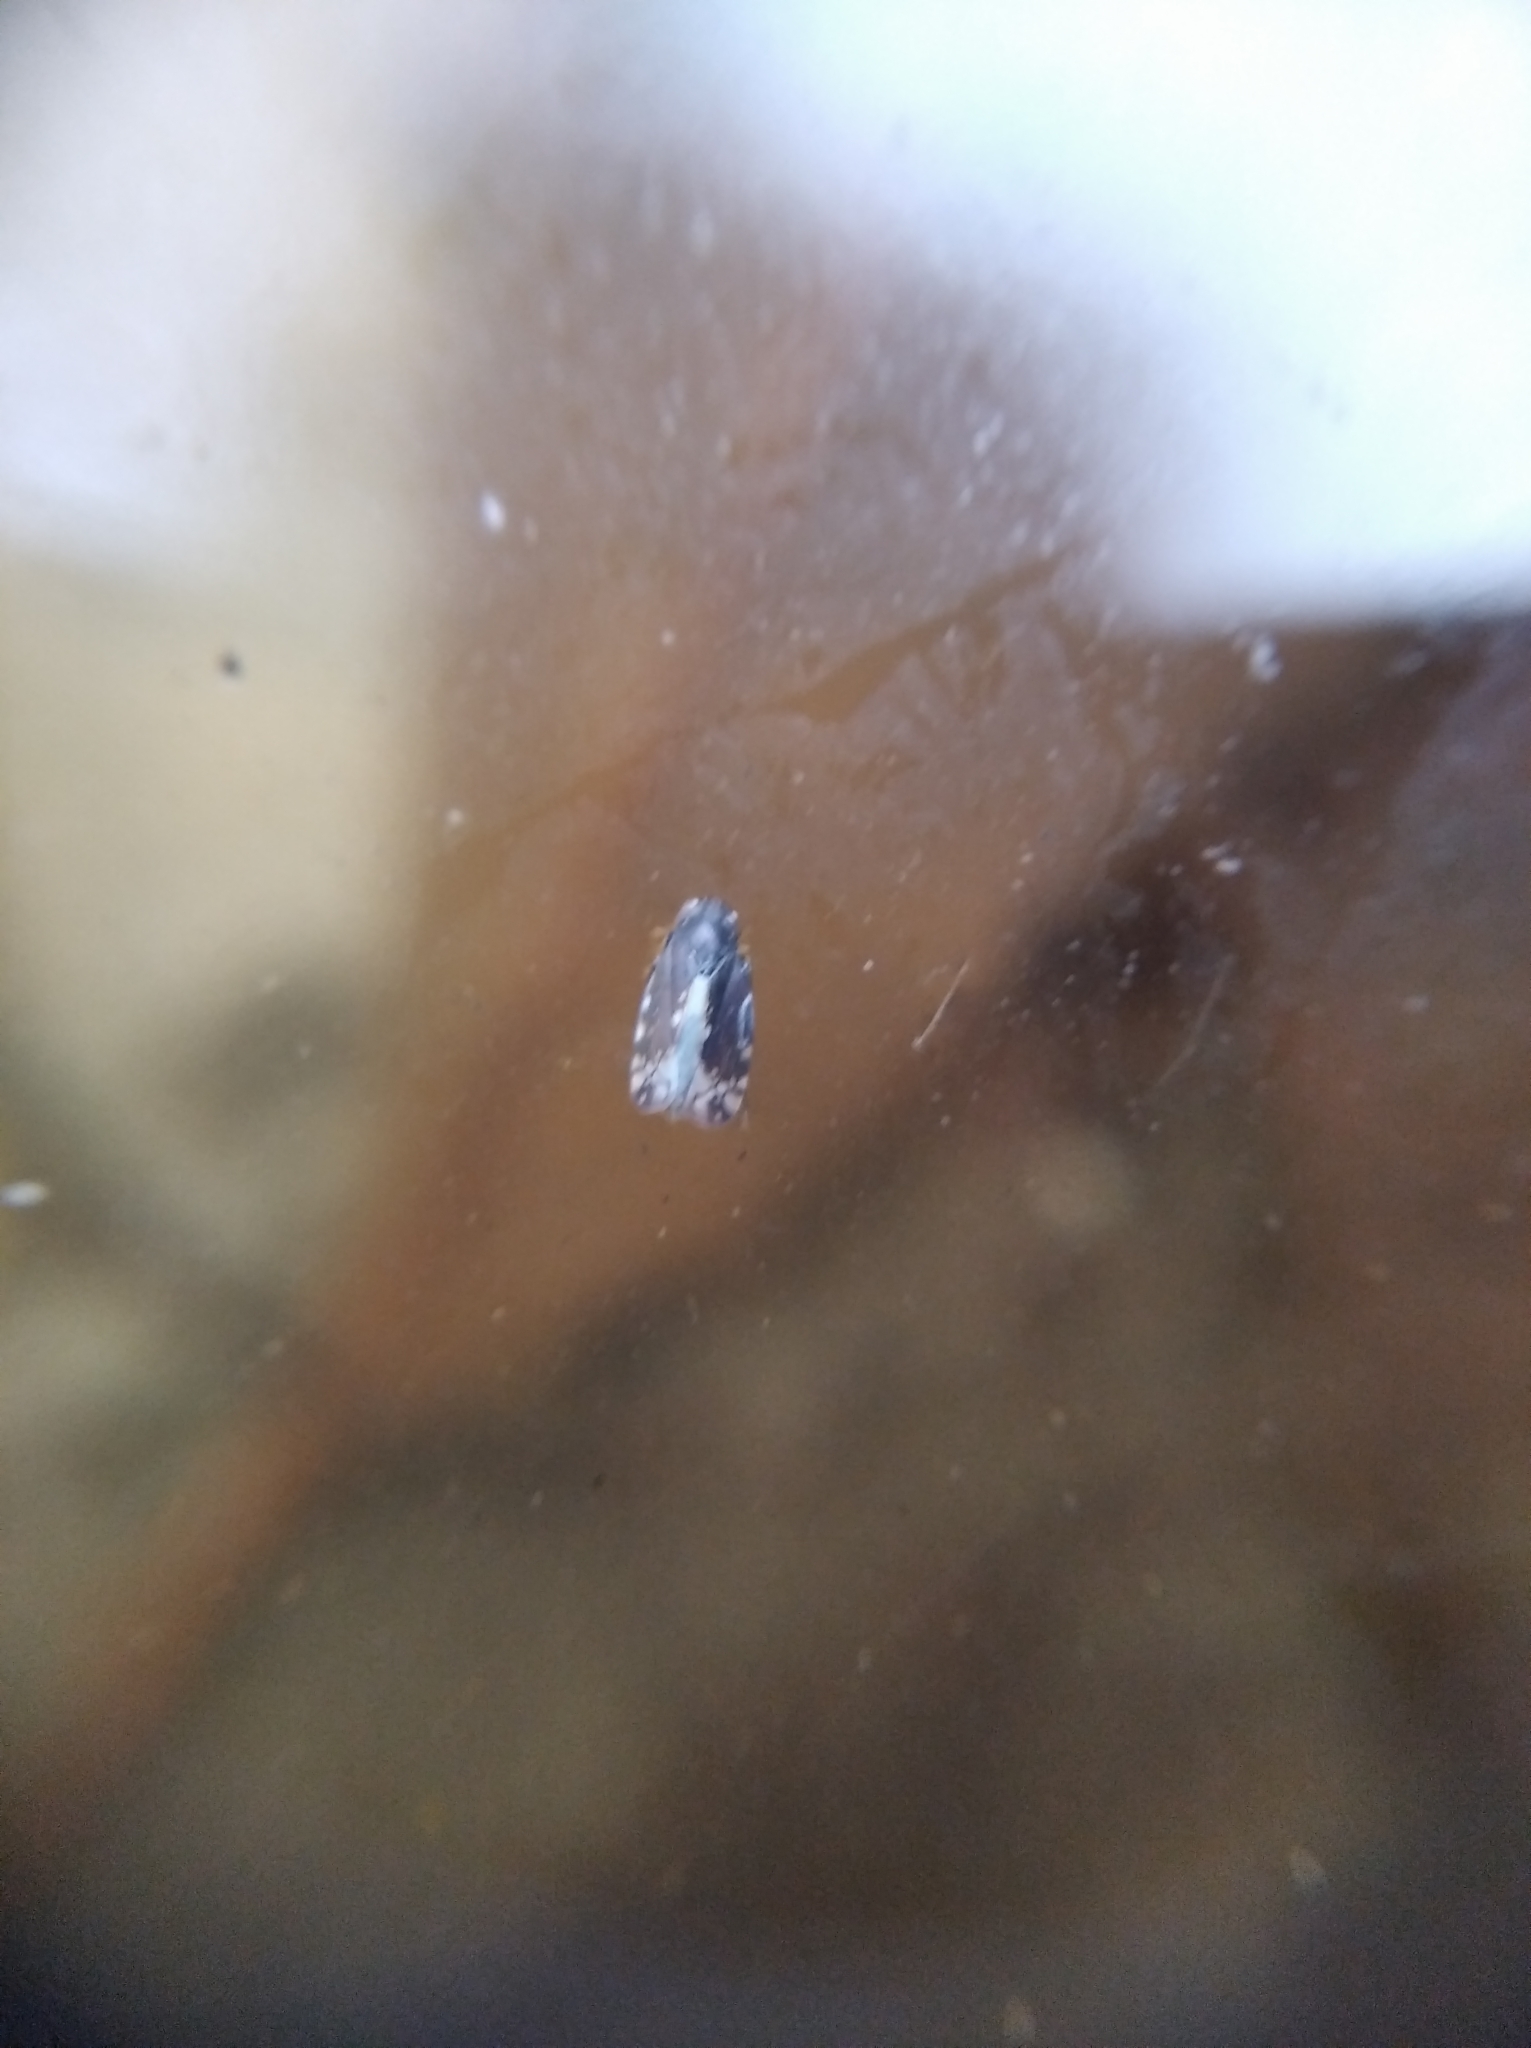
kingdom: Animalia
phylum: Arthropoda
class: Insecta
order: Hemiptera
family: Cicadellidae
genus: Neoaliturus
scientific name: Neoaliturus fenestratus
